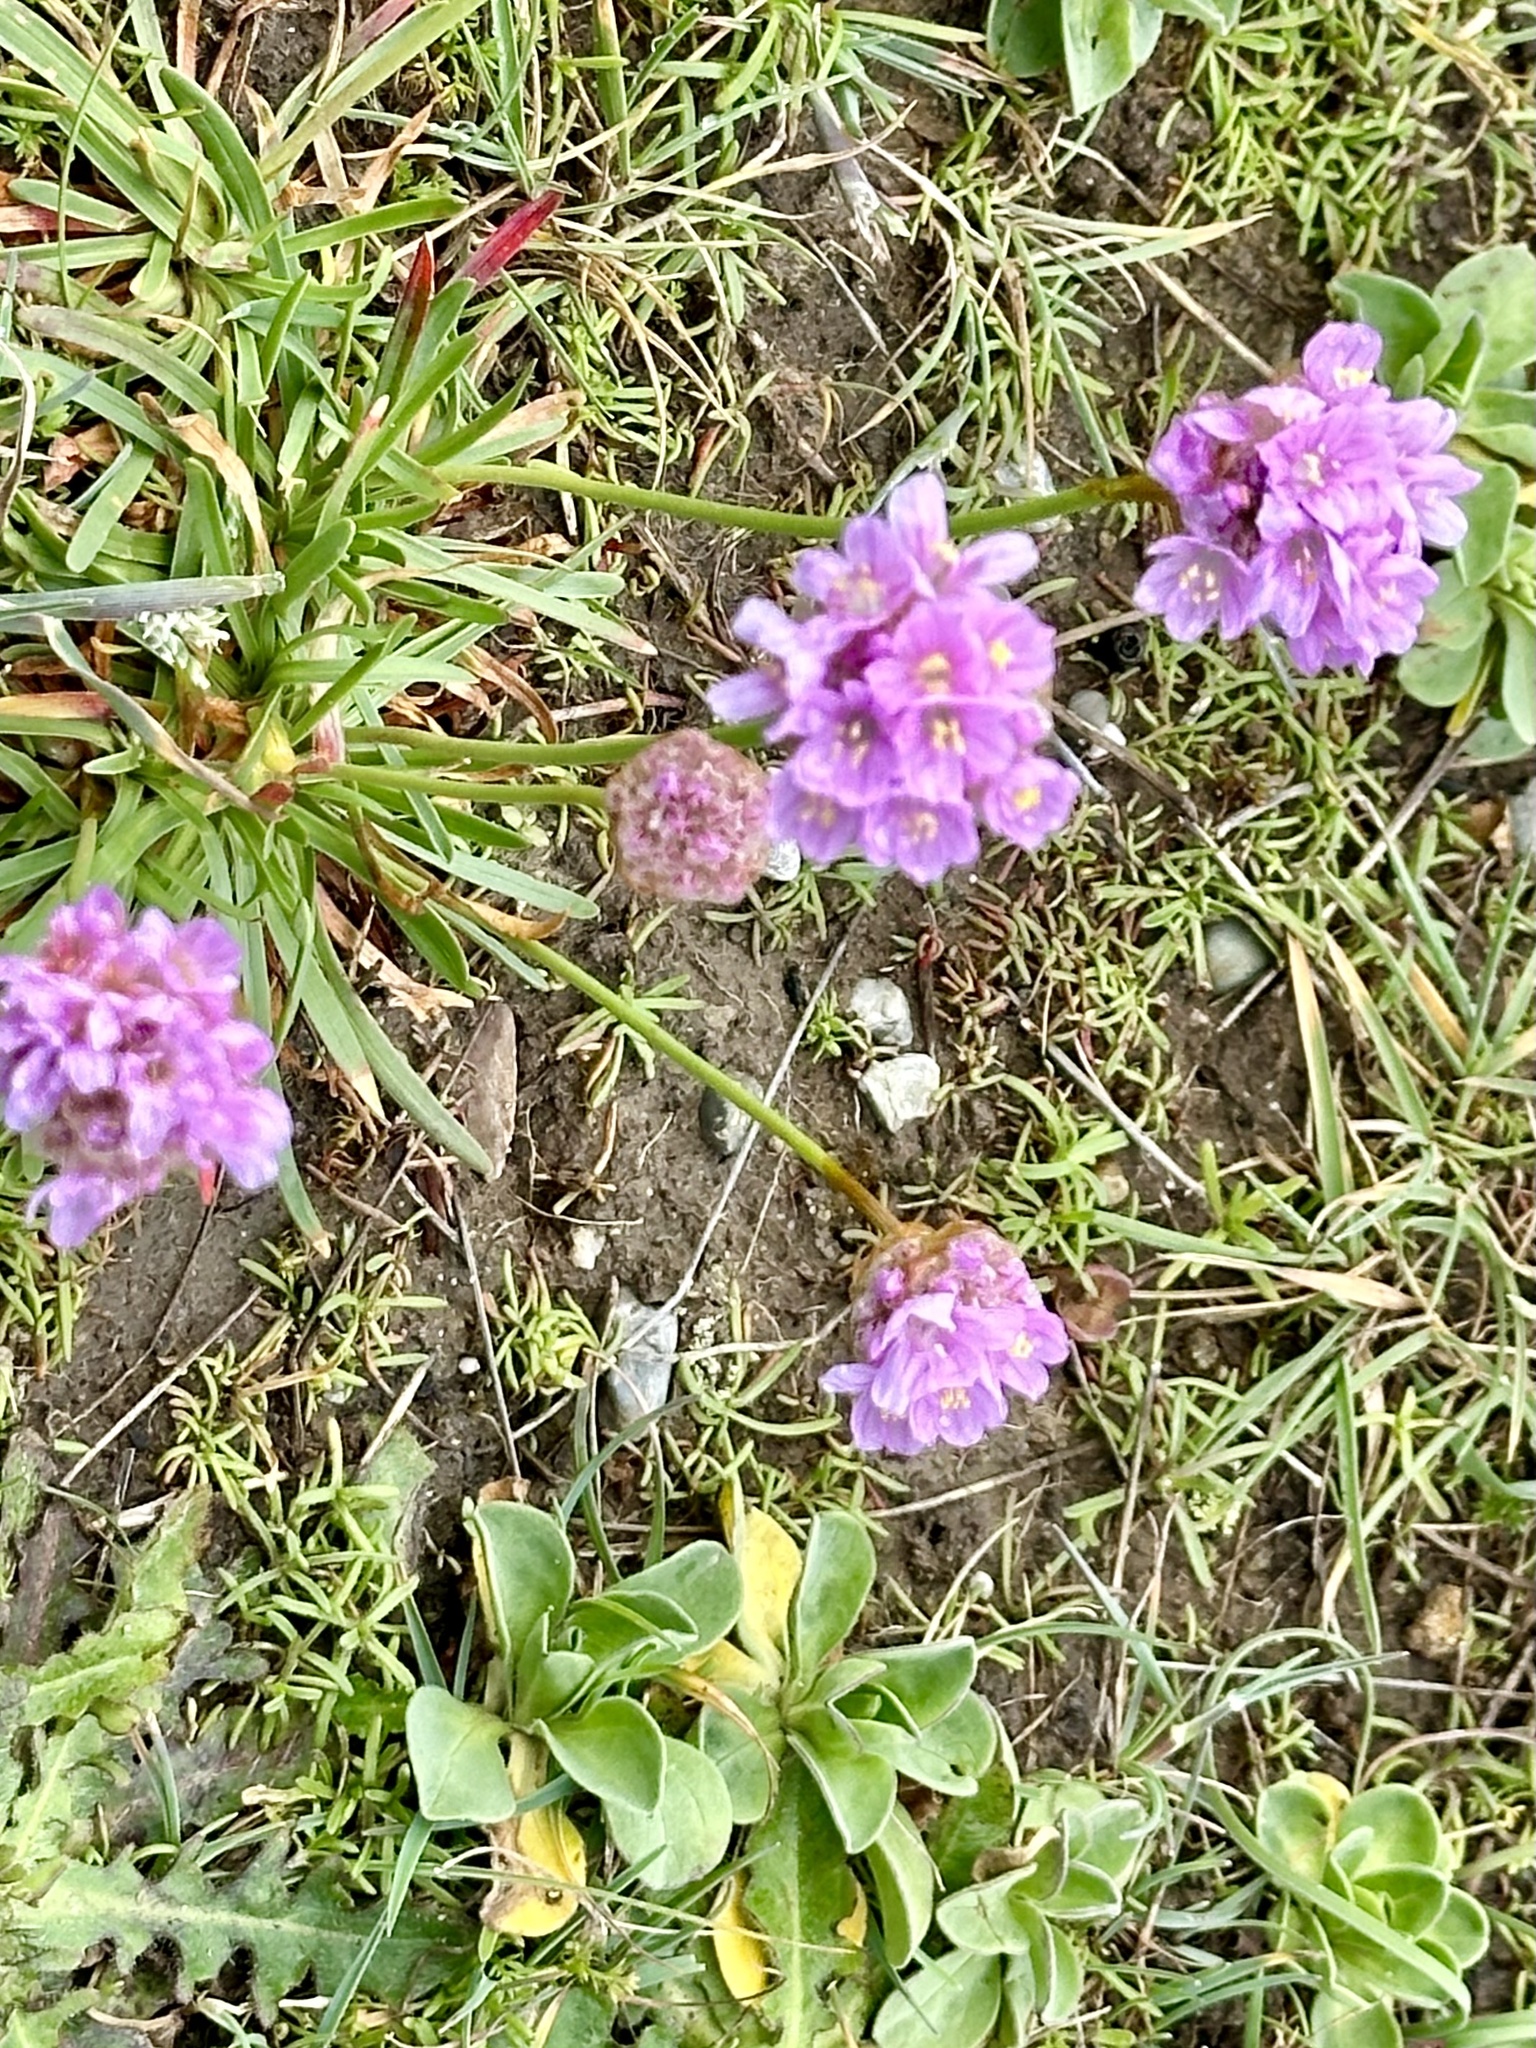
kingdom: Plantae
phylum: Tracheophyta
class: Magnoliopsida
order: Caryophyllales
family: Plumbaginaceae
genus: Armeria
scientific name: Armeria maritima
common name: Thrift
